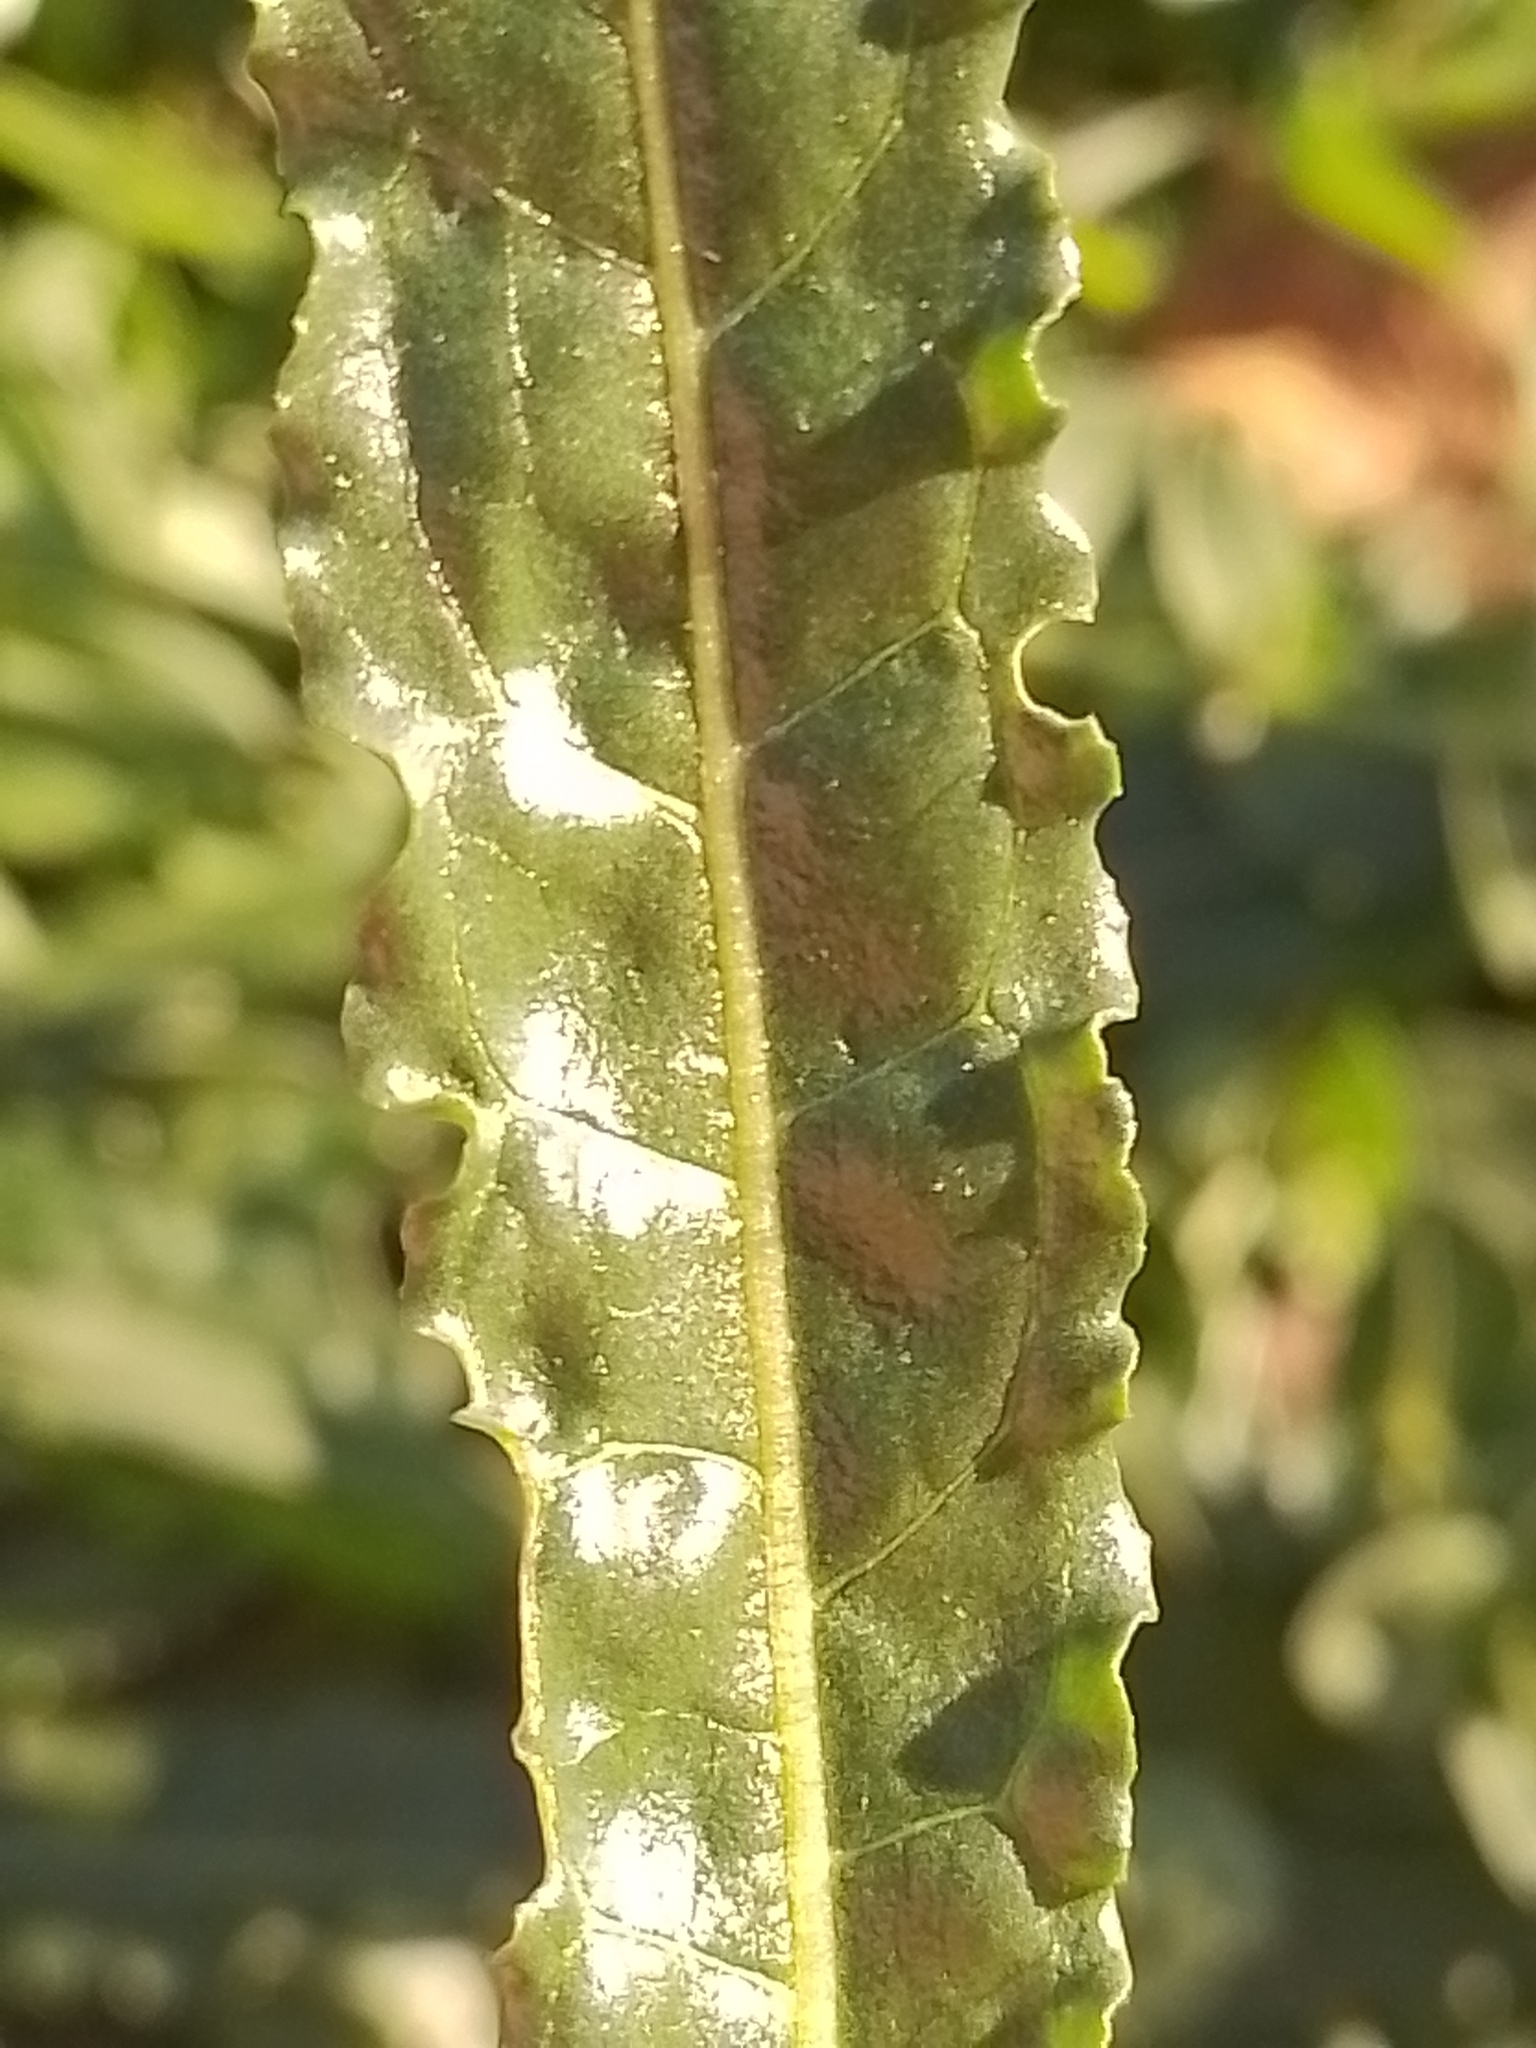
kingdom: Plantae
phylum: Tracheophyta
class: Magnoliopsida
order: Brassicales
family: Resedaceae
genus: Reseda
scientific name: Reseda luteola
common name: Weld
